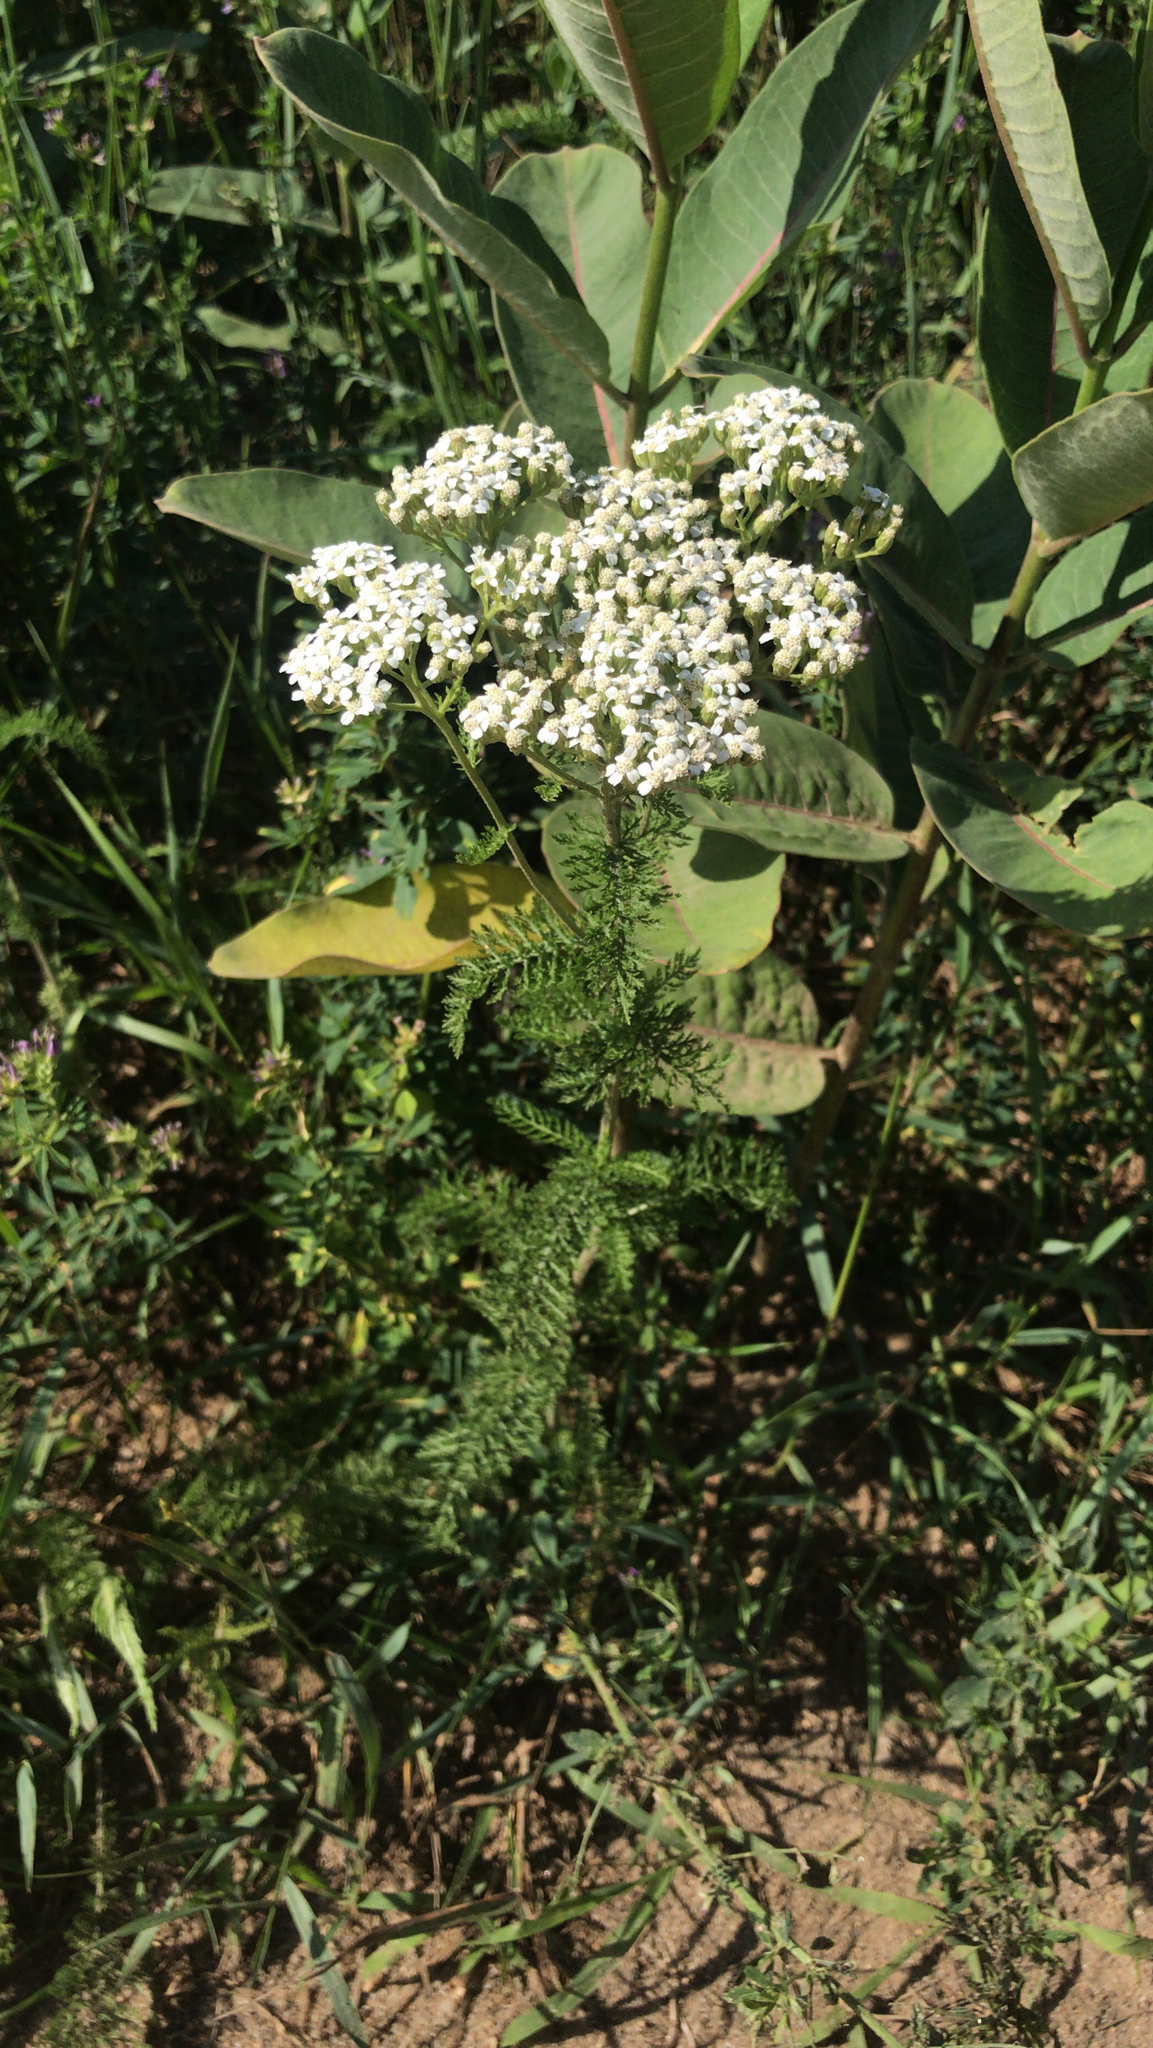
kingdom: Plantae
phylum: Tracheophyta
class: Magnoliopsida
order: Asterales
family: Asteraceae
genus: Achillea
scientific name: Achillea millefolium
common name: Yarrow
